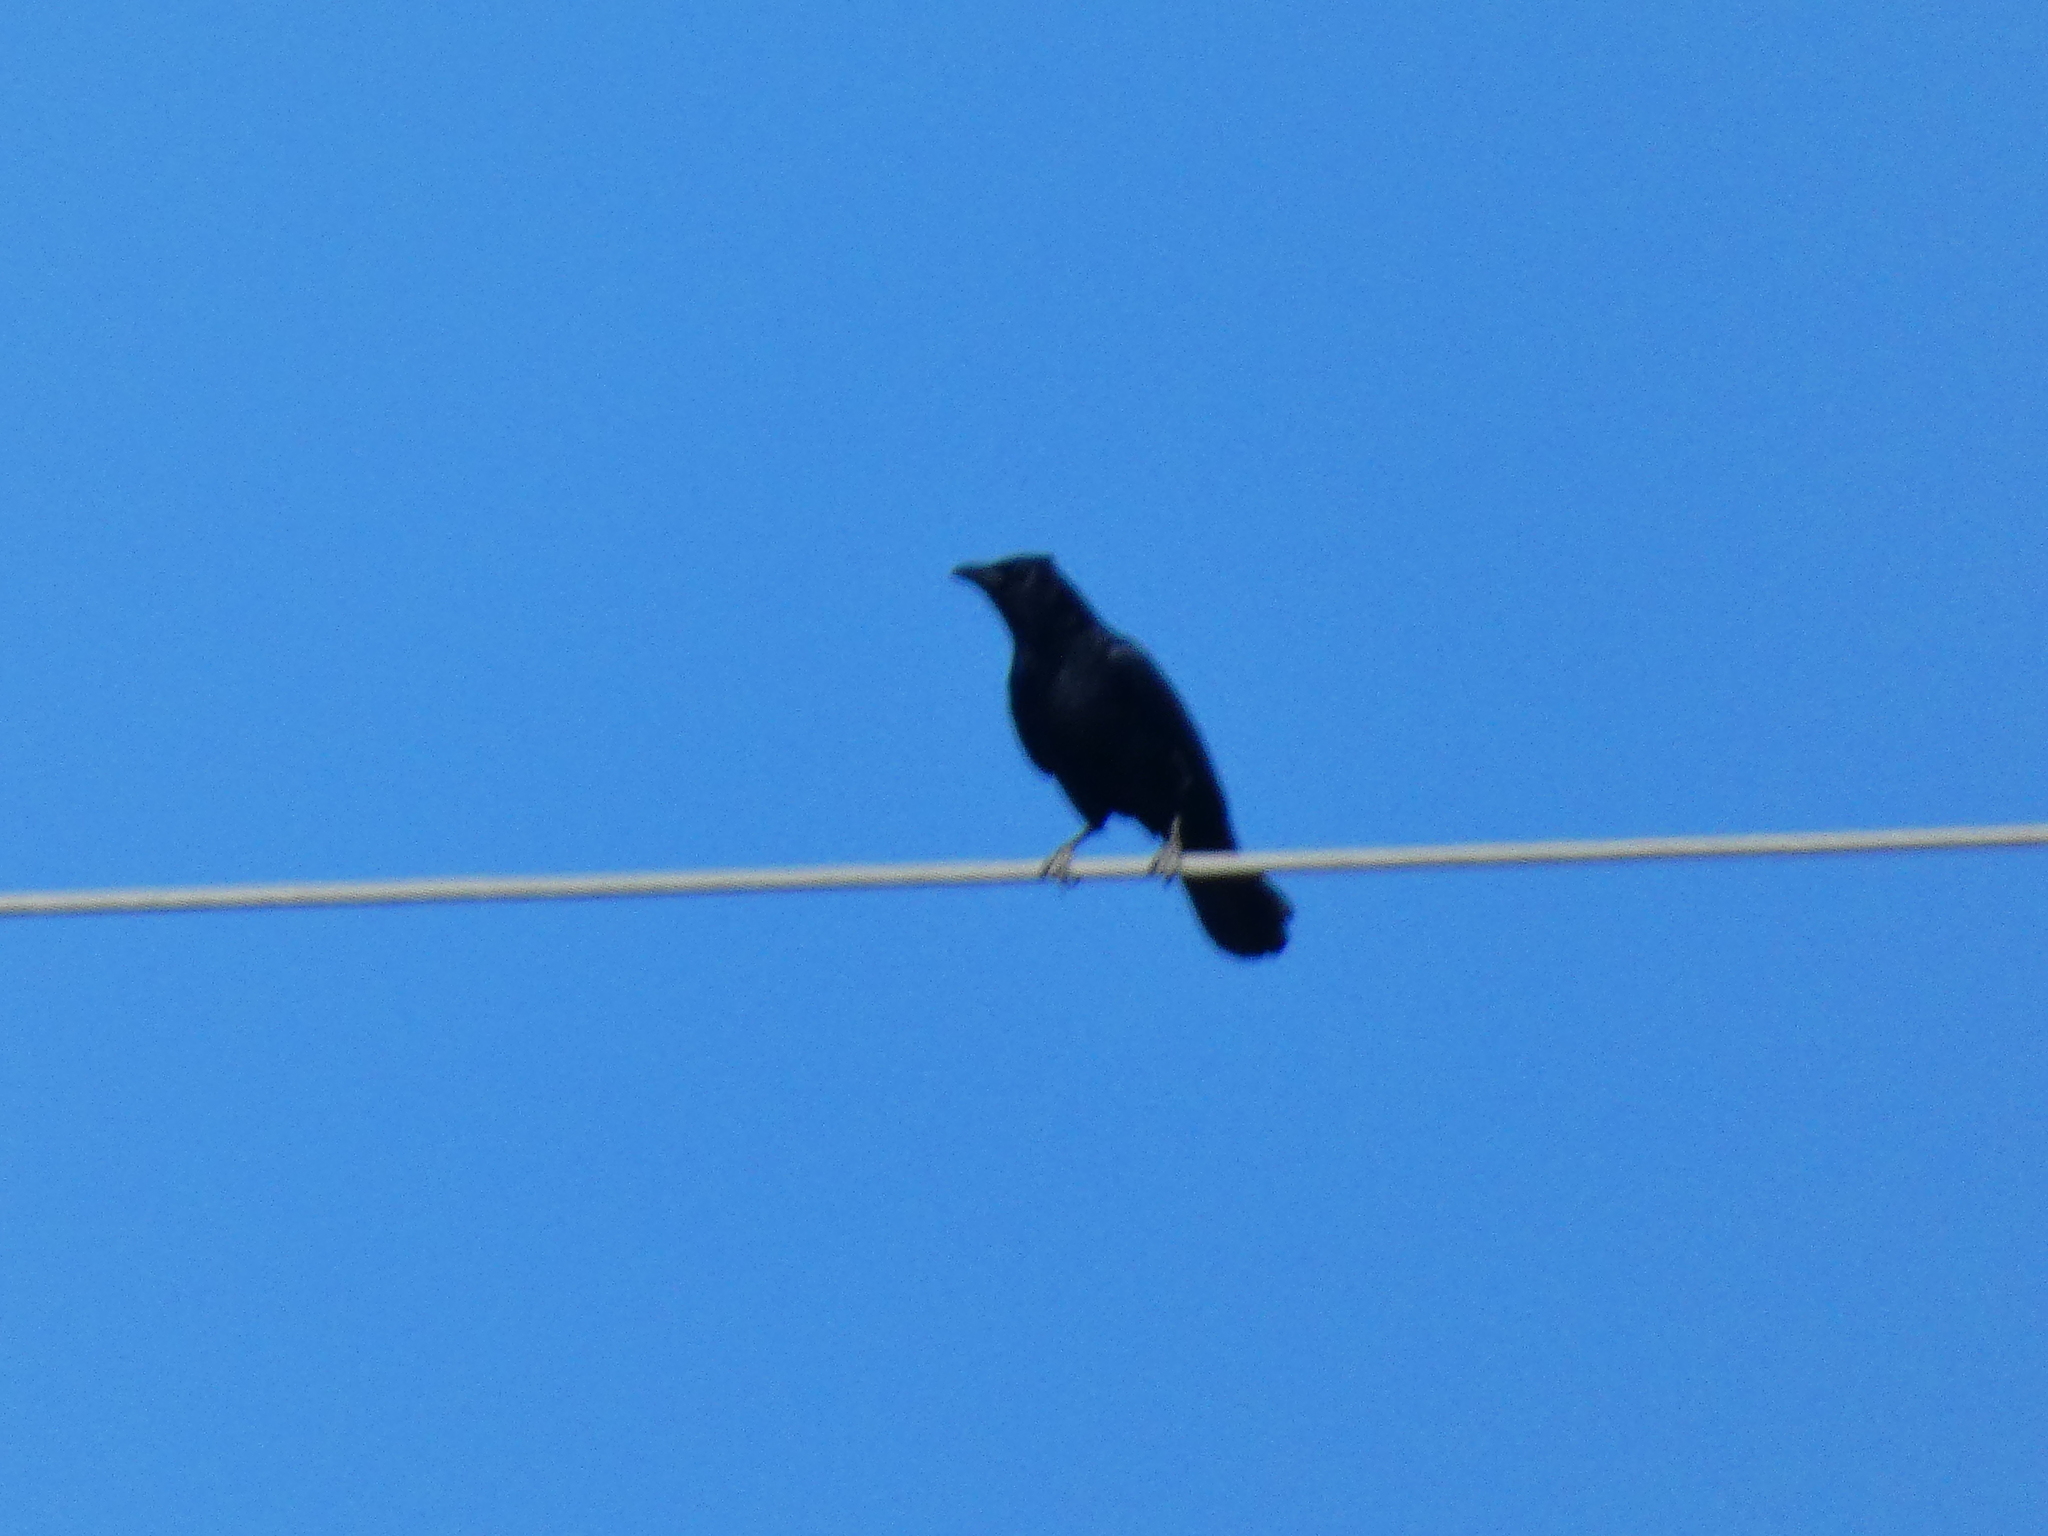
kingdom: Animalia
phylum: Chordata
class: Aves
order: Passeriformes
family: Corvidae
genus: Corvus
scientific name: Corvus corone
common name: Carrion crow
